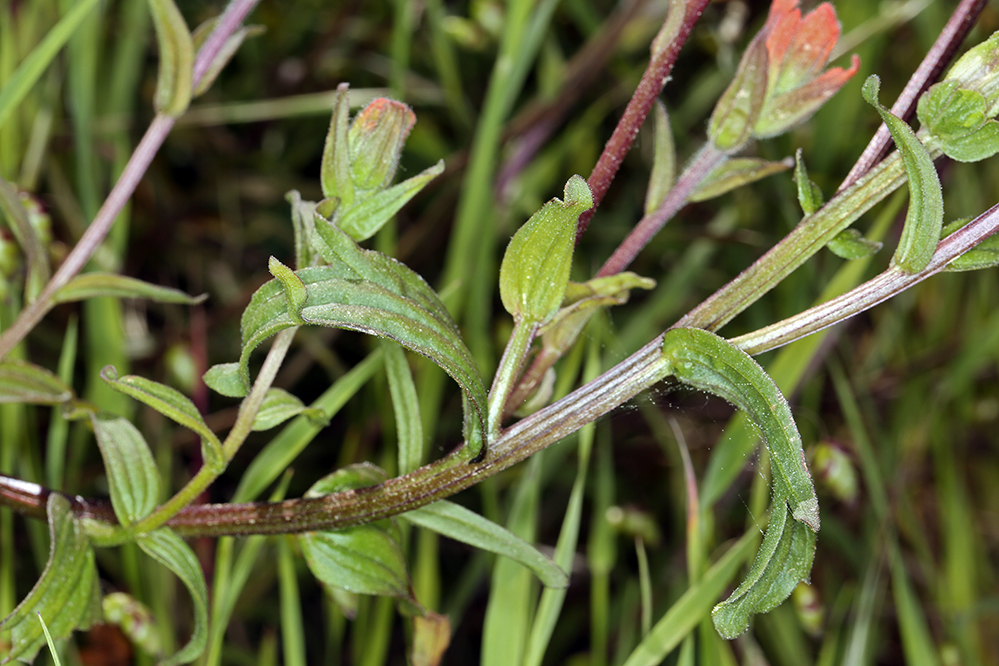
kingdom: Plantae
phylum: Tracheophyta
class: Magnoliopsida
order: Lamiales
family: Orobanchaceae
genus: Castilleja
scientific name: Castilleja litoralis
